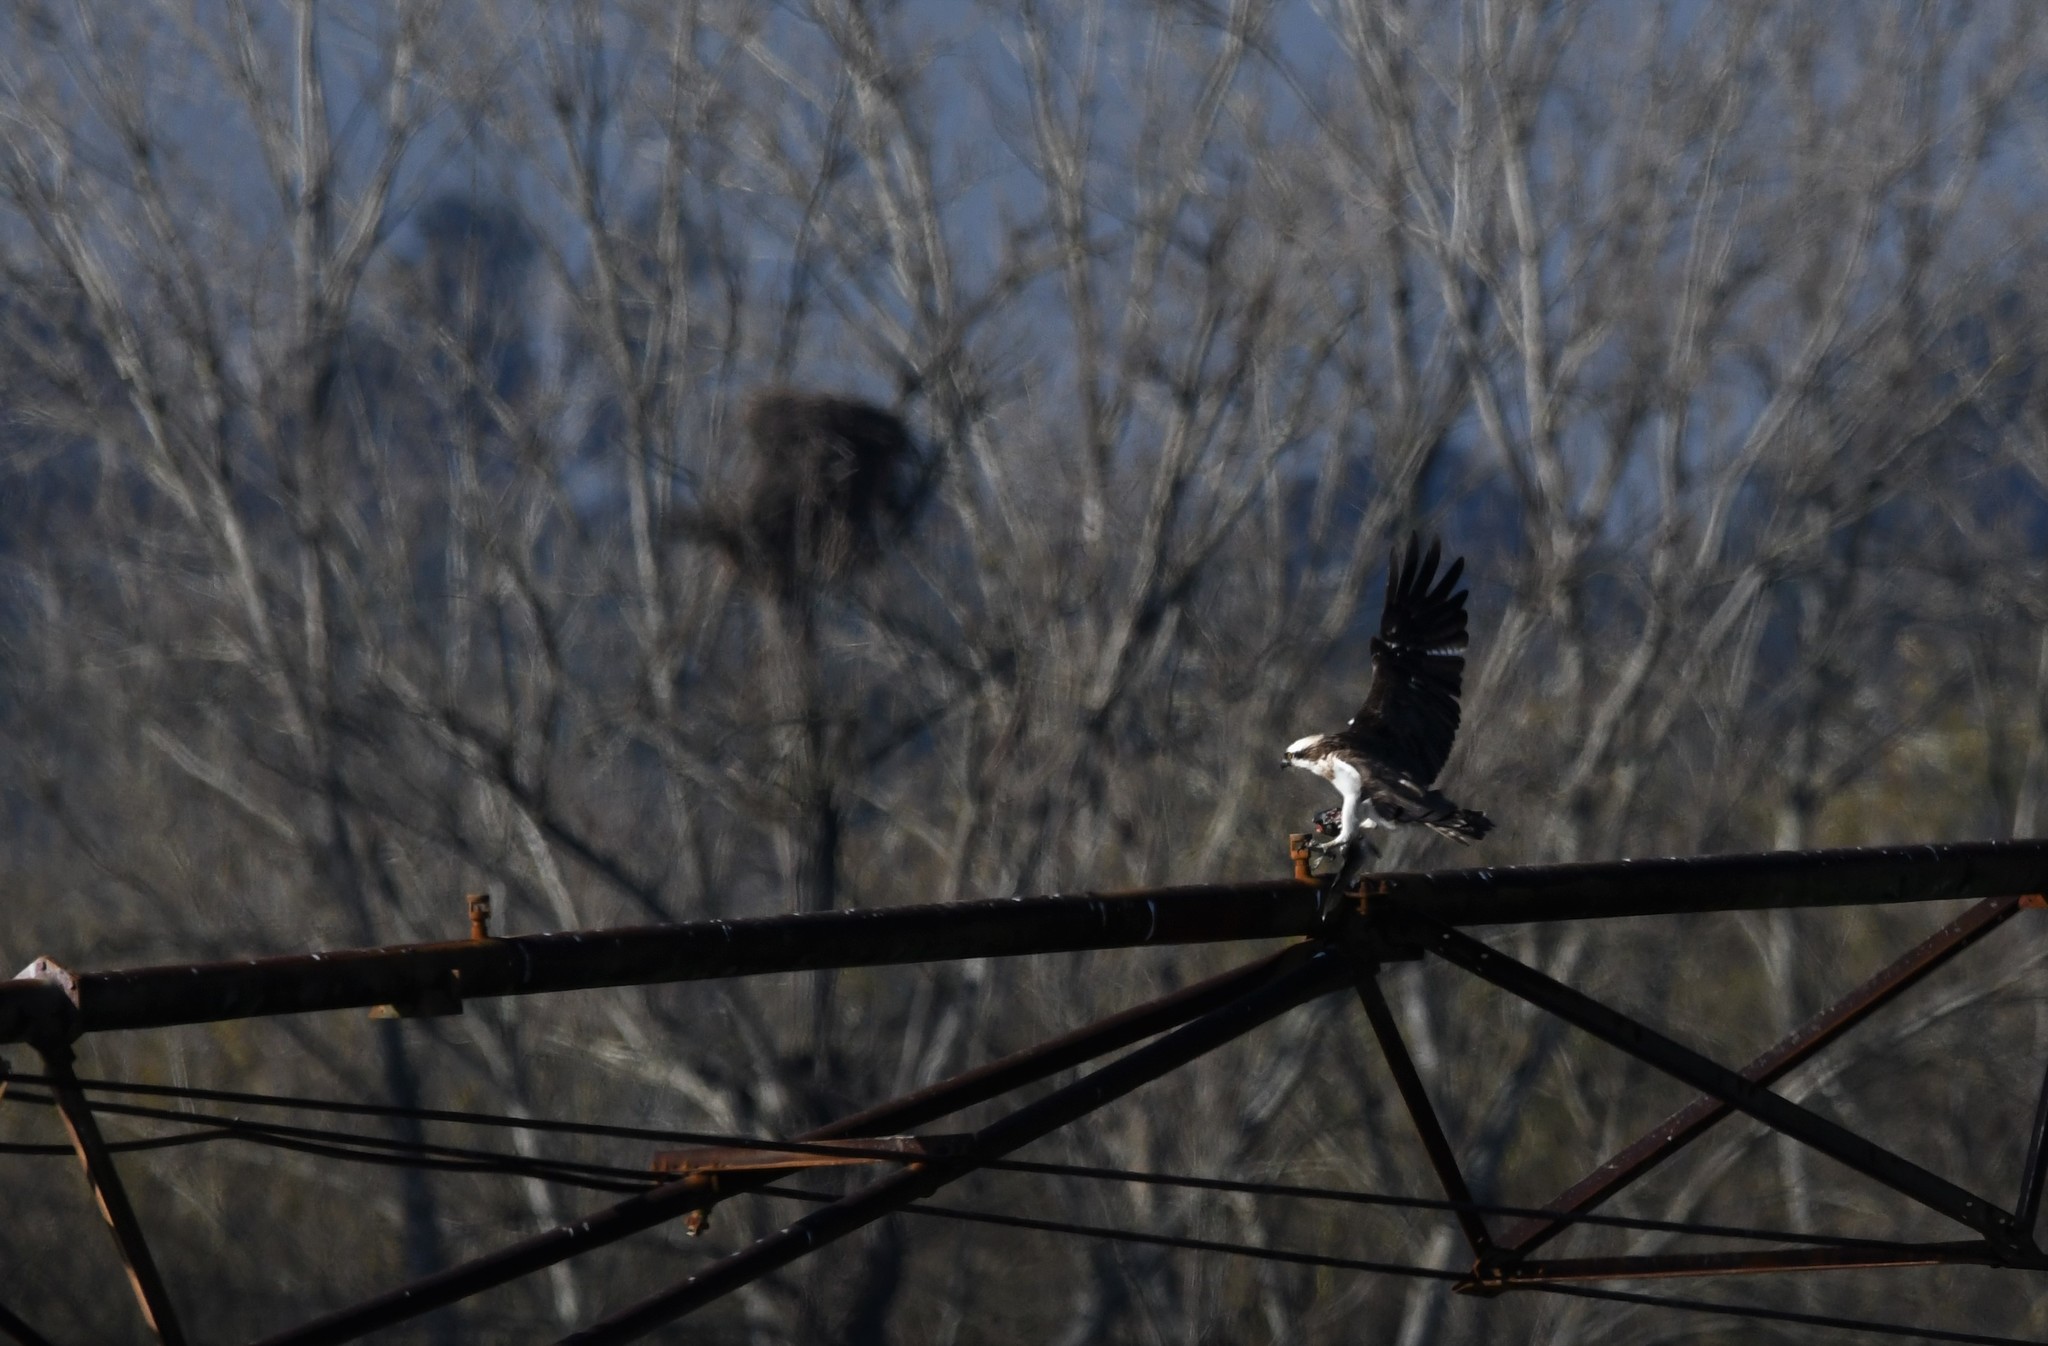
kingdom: Animalia
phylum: Chordata
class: Aves
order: Accipitriformes
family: Pandionidae
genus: Pandion
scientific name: Pandion haliaetus
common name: Osprey
